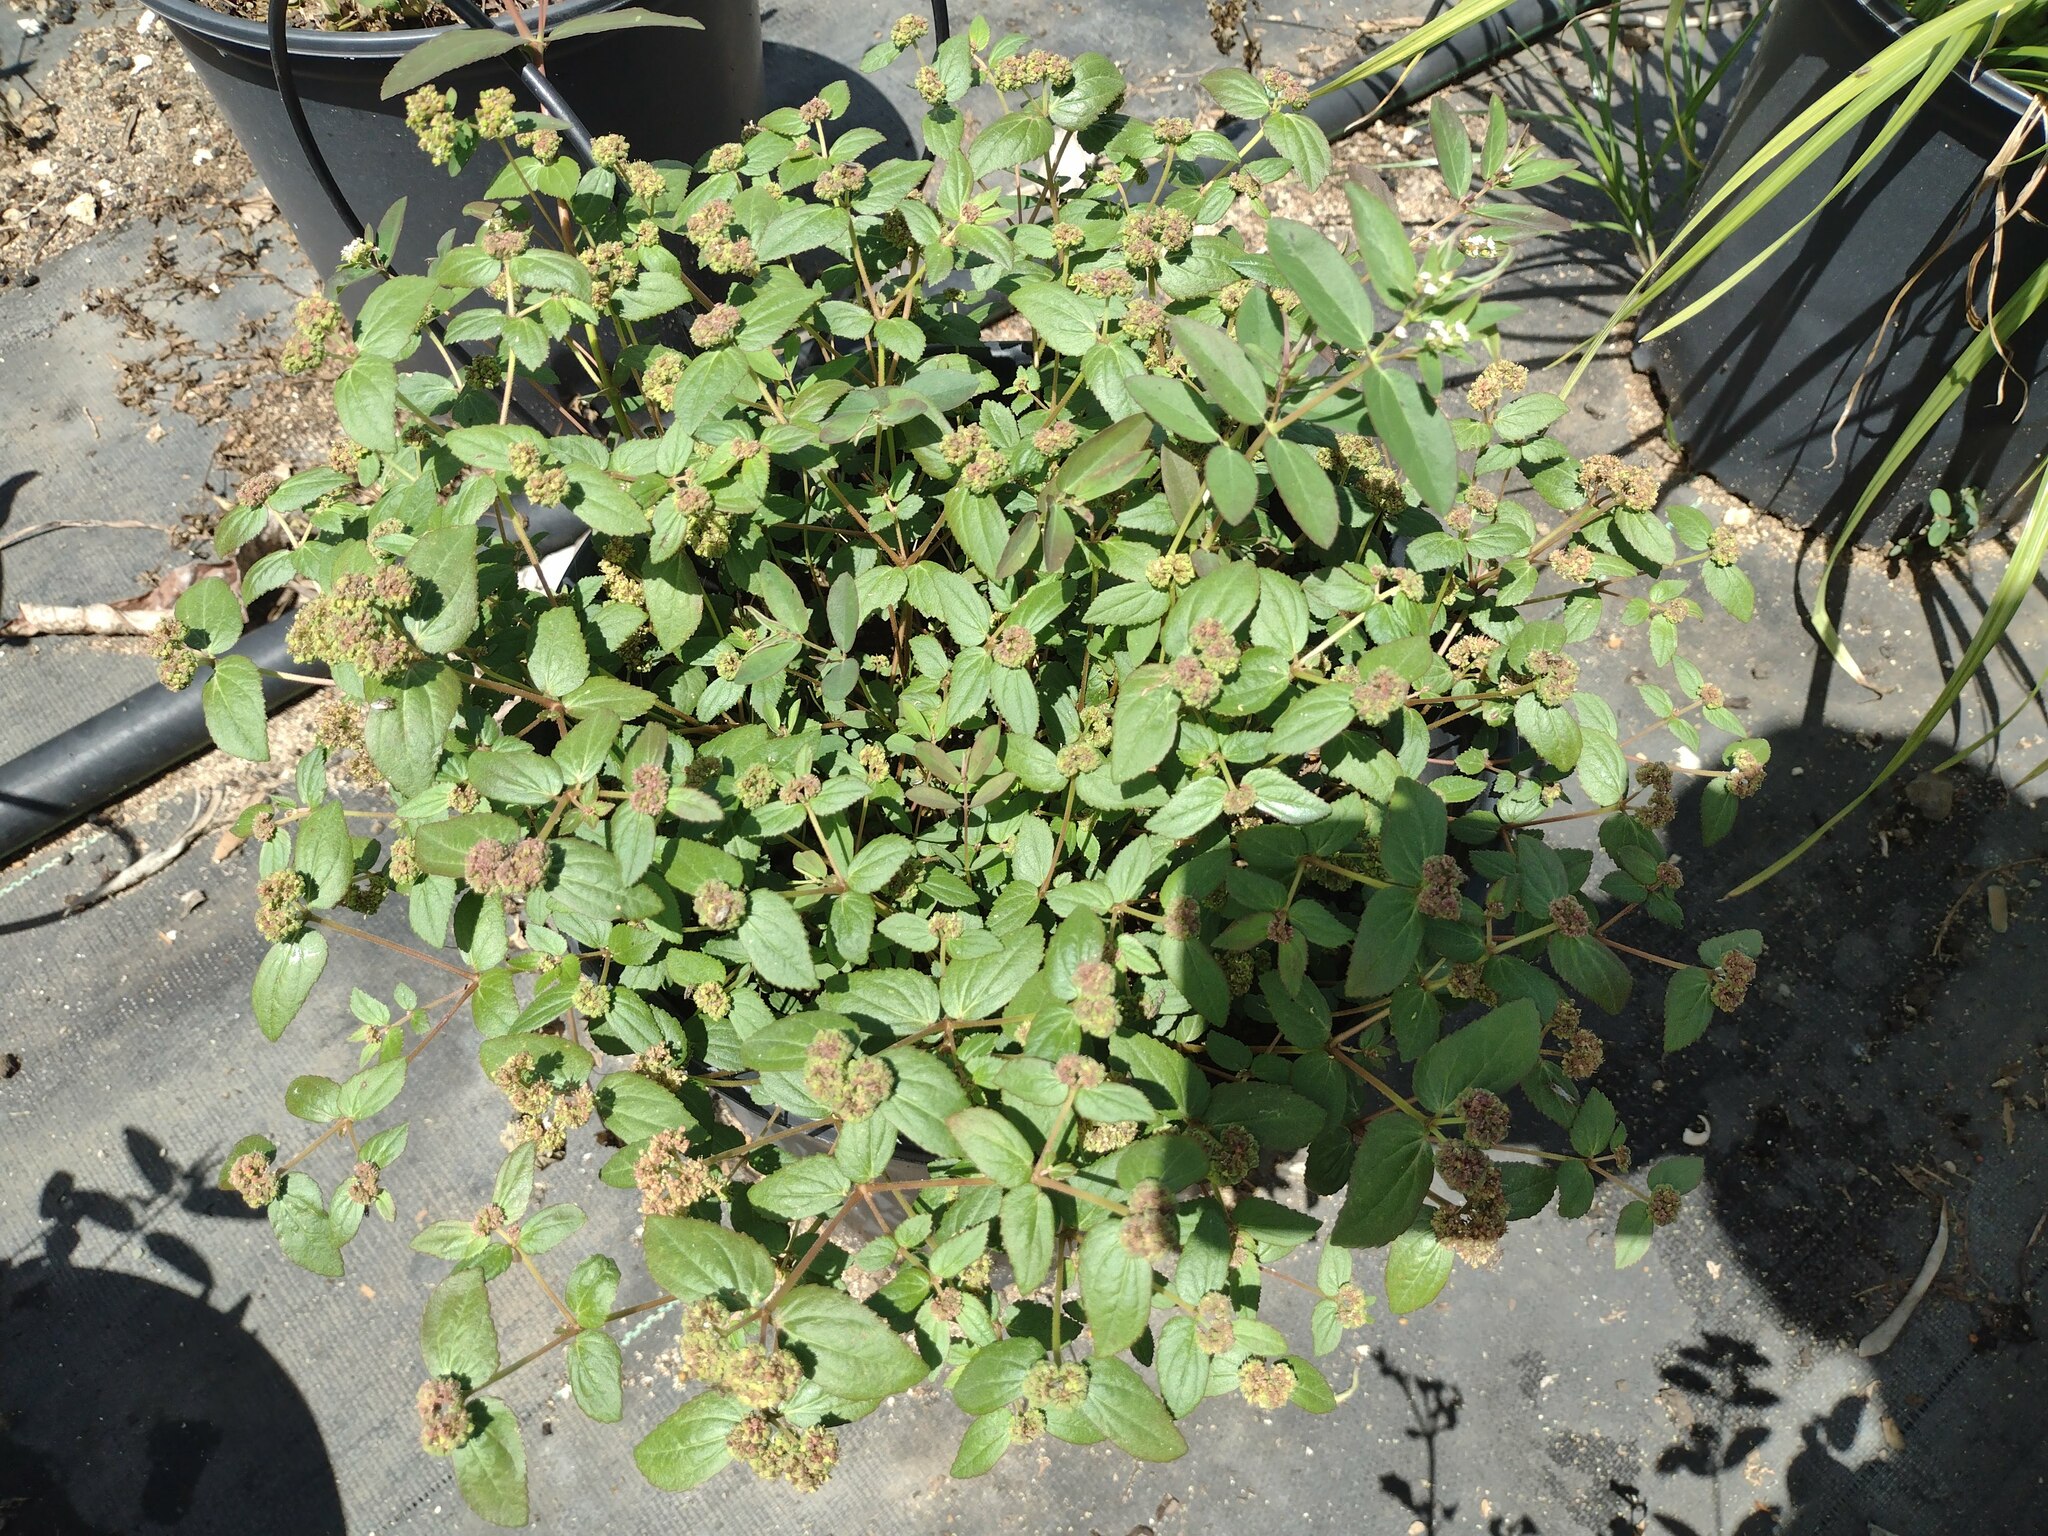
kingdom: Plantae
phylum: Tracheophyta
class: Magnoliopsida
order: Malpighiales
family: Euphorbiaceae
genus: Euphorbia
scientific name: Euphorbia ophthalmica
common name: Florida hammock sandmat
